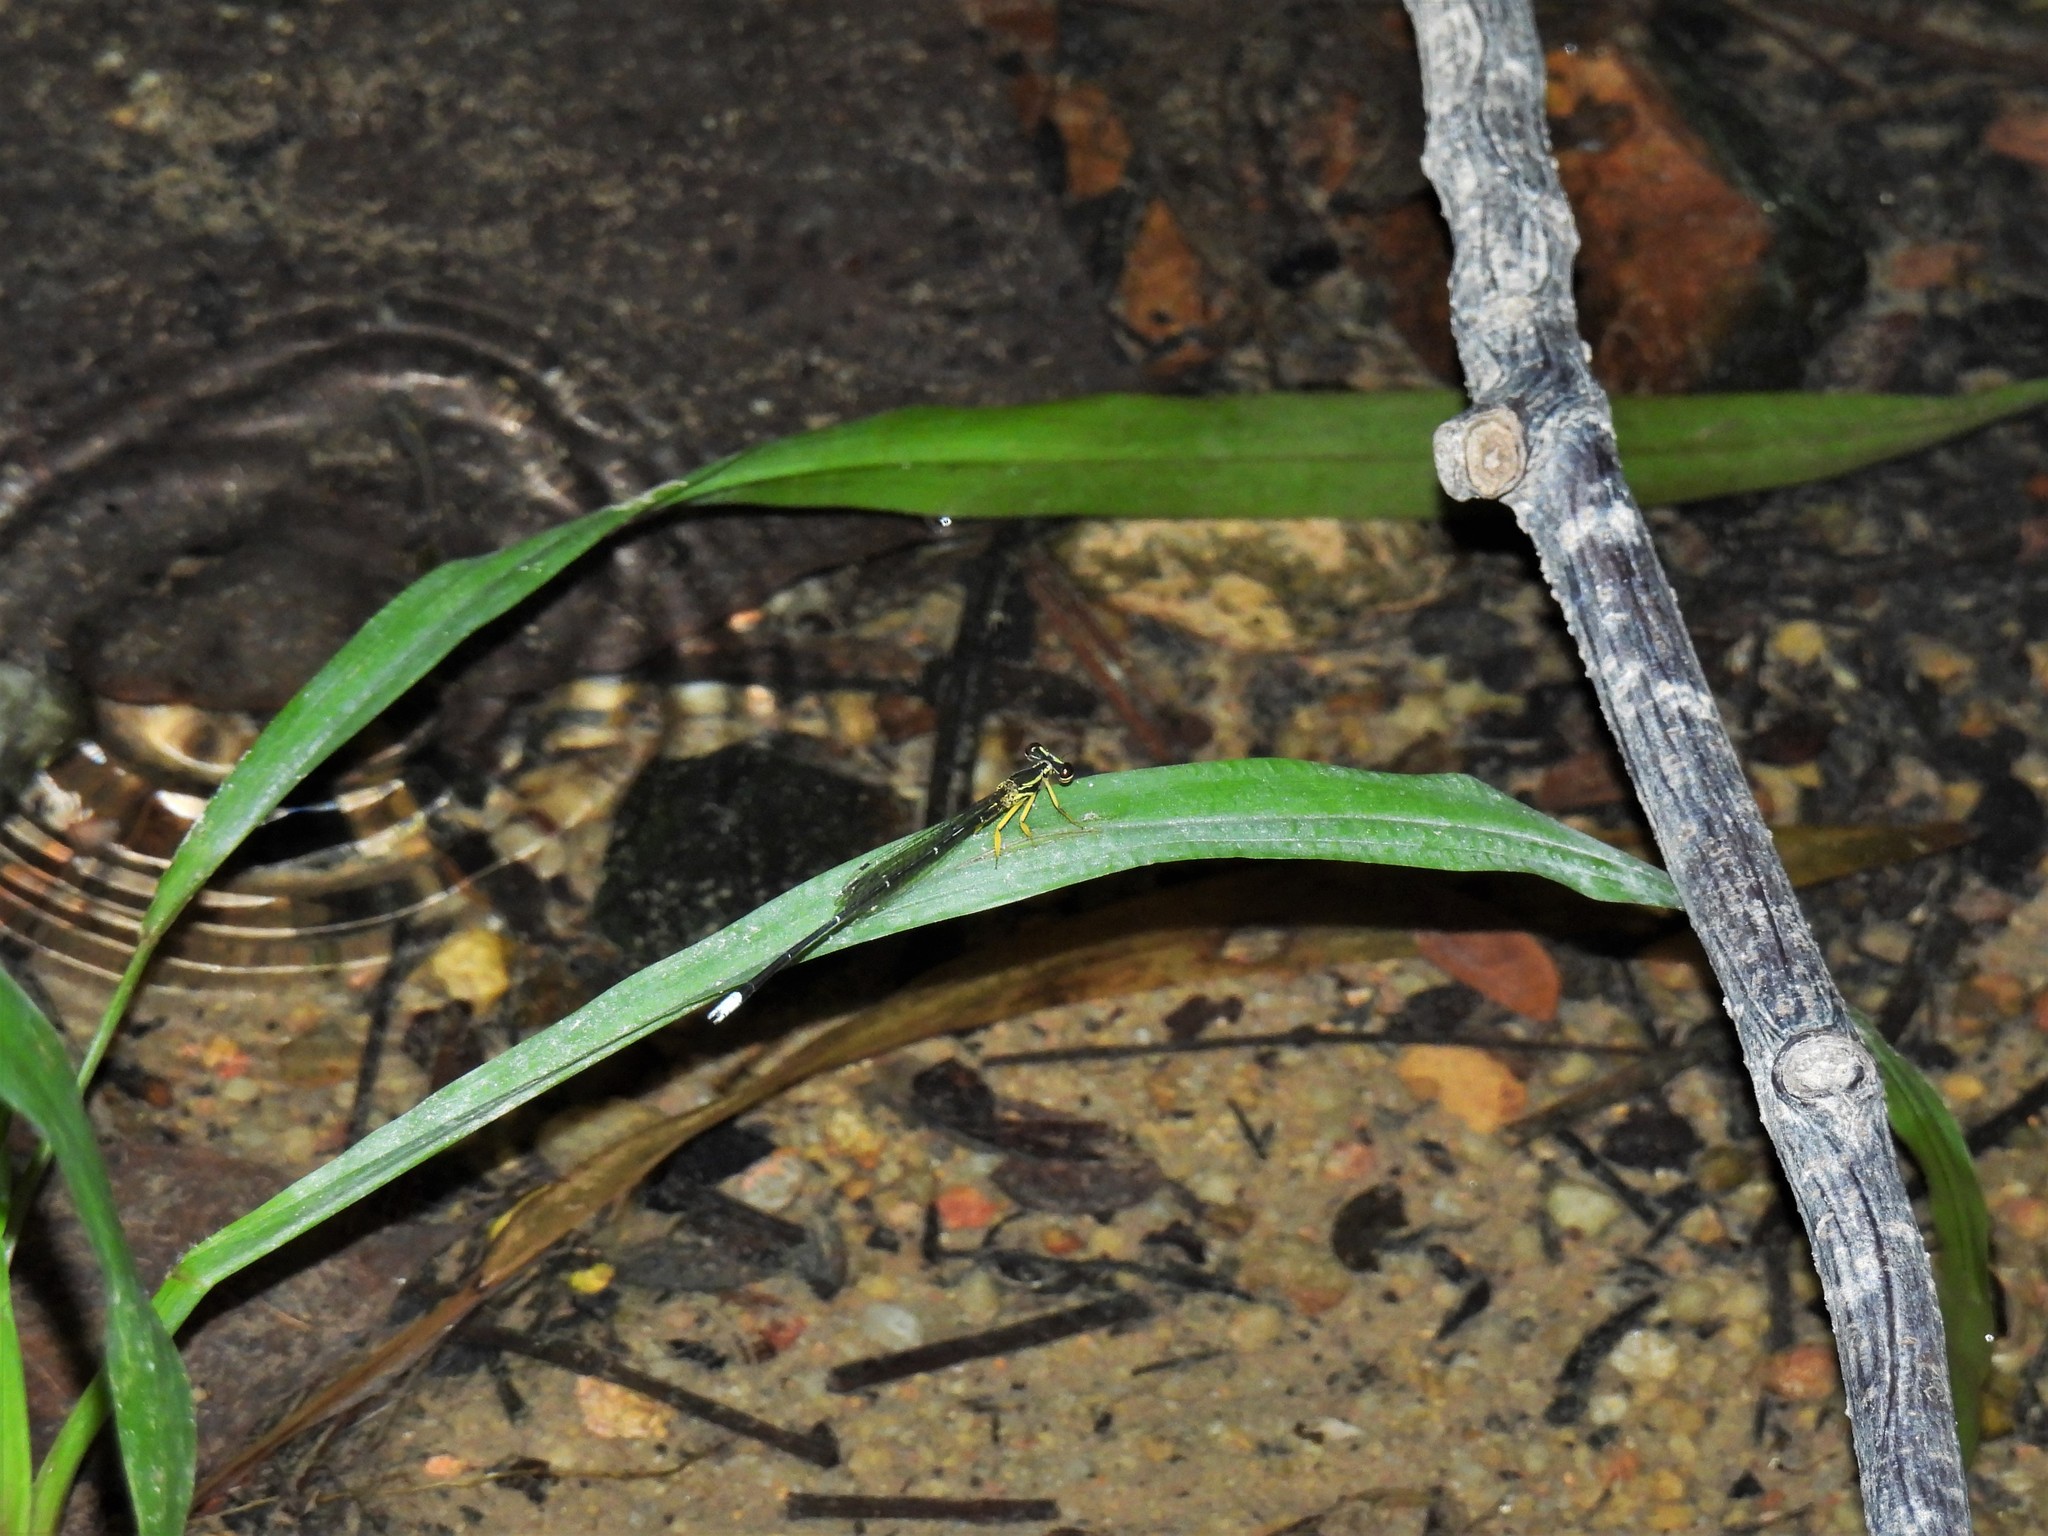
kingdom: Animalia
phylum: Arthropoda
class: Insecta
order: Odonata
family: Platycnemididae
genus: Copera
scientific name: Copera marginipes
